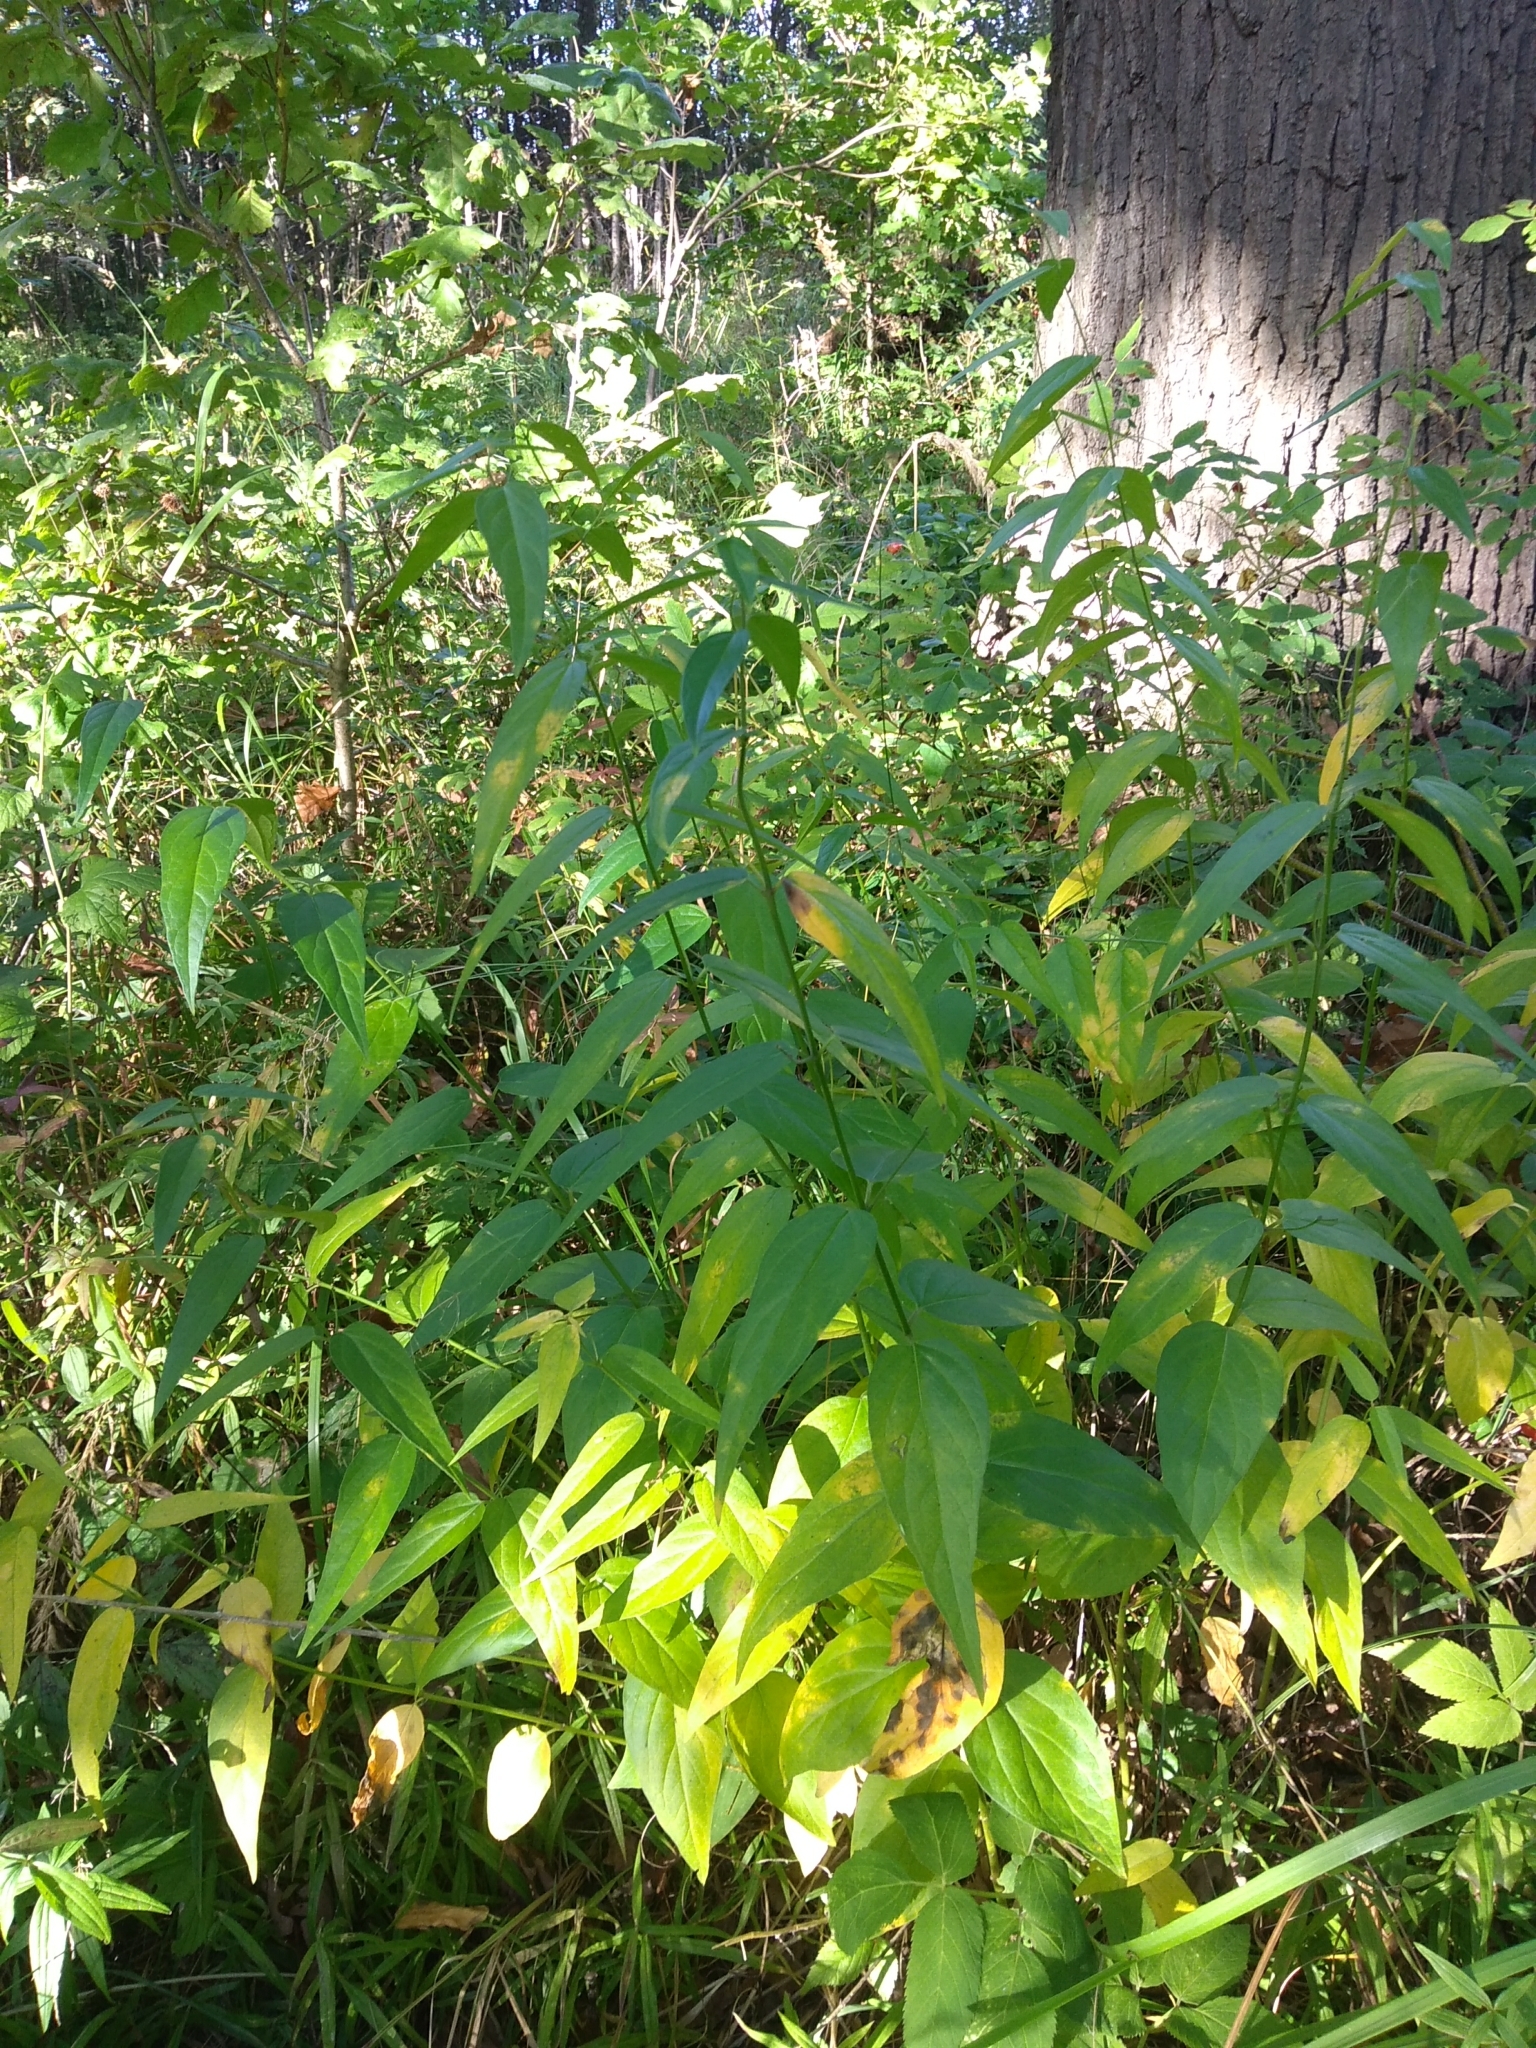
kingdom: Plantae
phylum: Tracheophyta
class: Magnoliopsida
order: Gentianales
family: Apocynaceae
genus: Vincetoxicum
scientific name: Vincetoxicum hirundinaria
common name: White swallowwort
